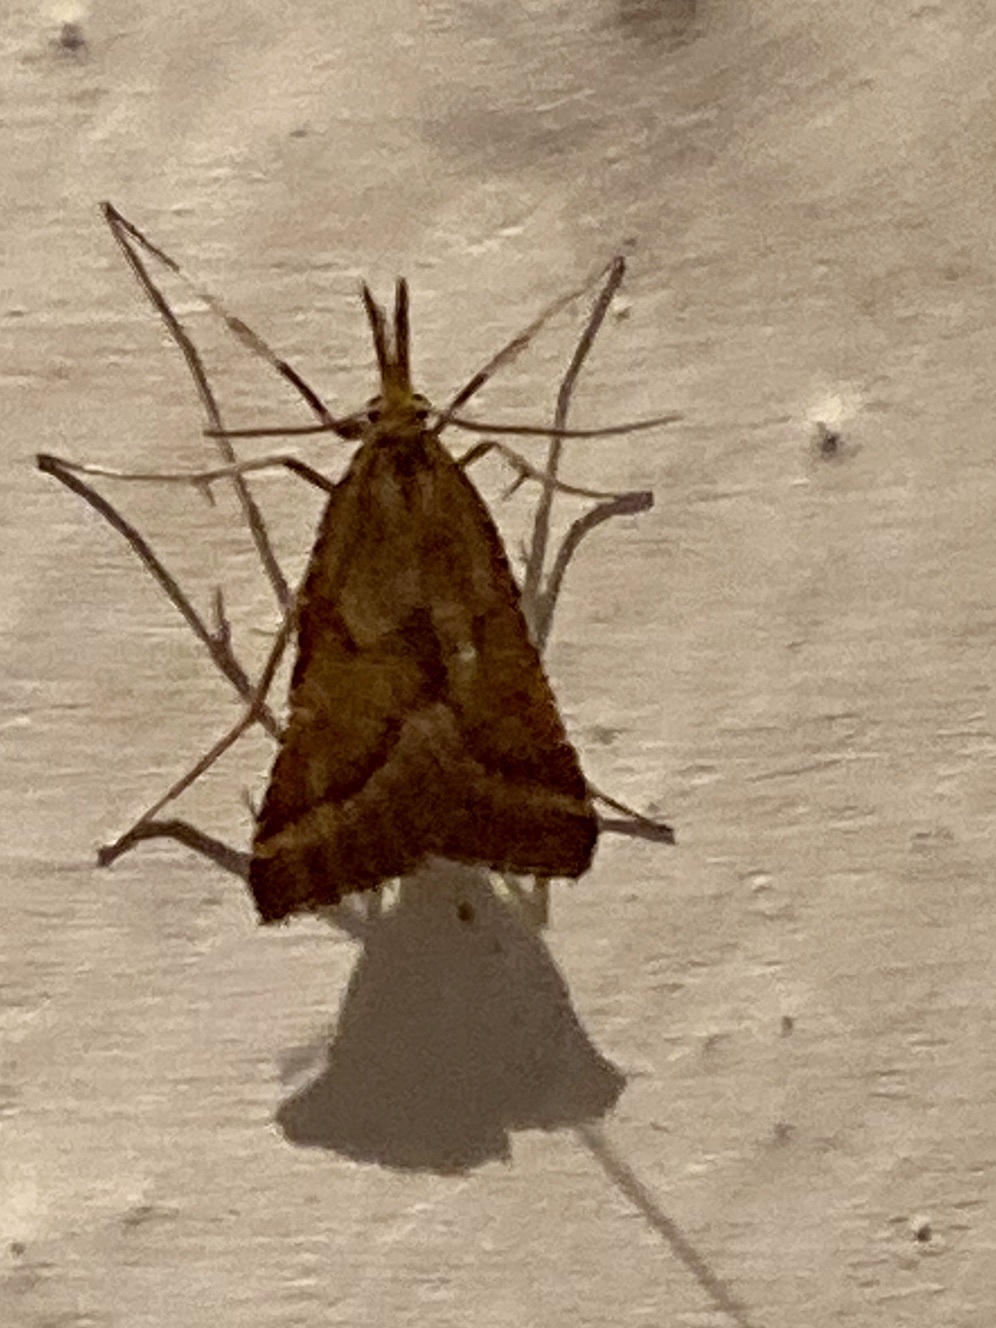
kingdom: Animalia
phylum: Arthropoda
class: Insecta
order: Lepidoptera
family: Pyralidae
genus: Synaphe
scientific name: Synaphe punctalis
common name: Long-legged tabby
